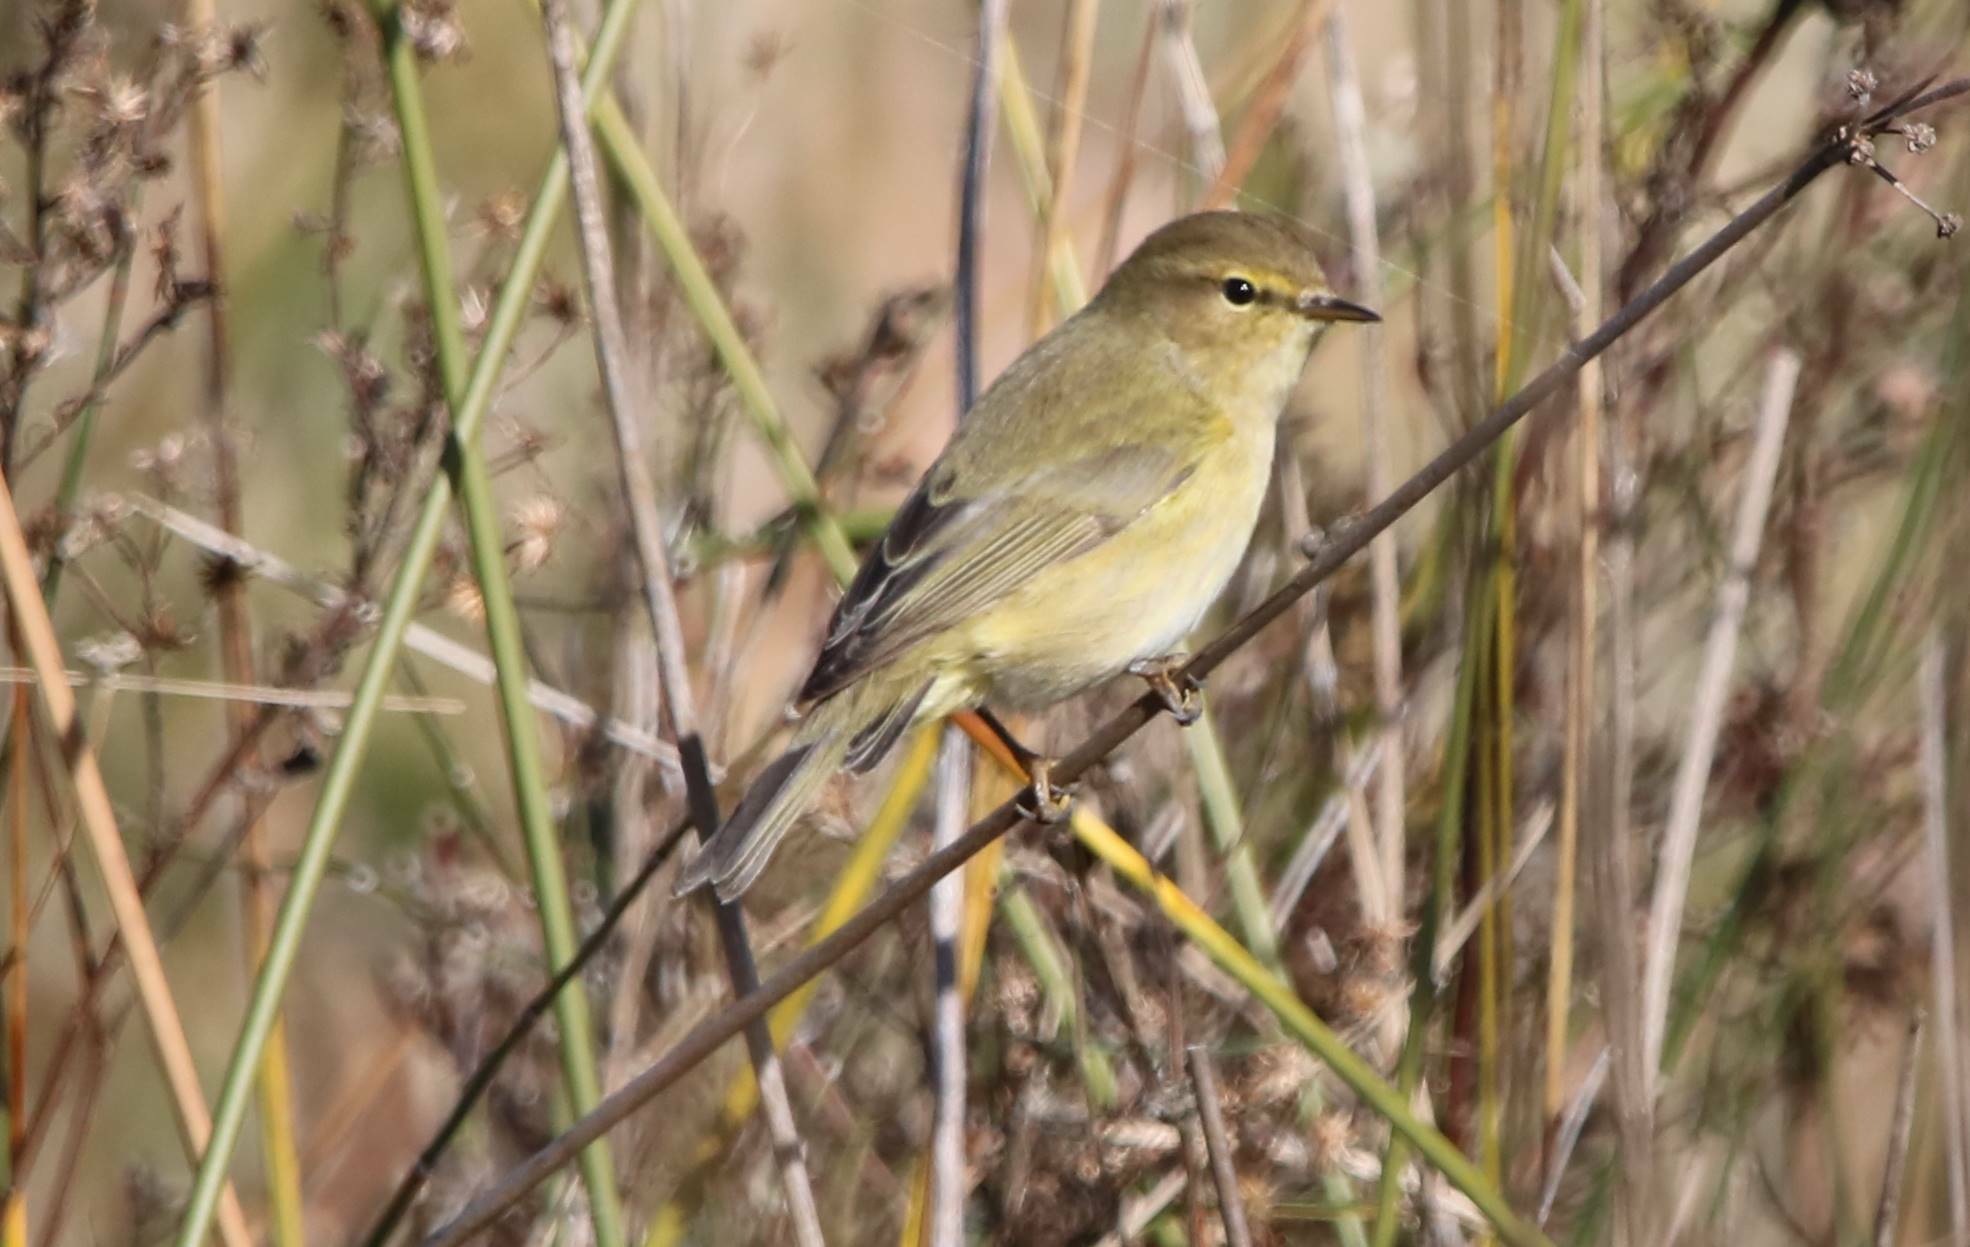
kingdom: Animalia
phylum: Chordata
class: Aves
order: Passeriformes
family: Phylloscopidae
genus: Phylloscopus
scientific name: Phylloscopus collybita
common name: Common chiffchaff
